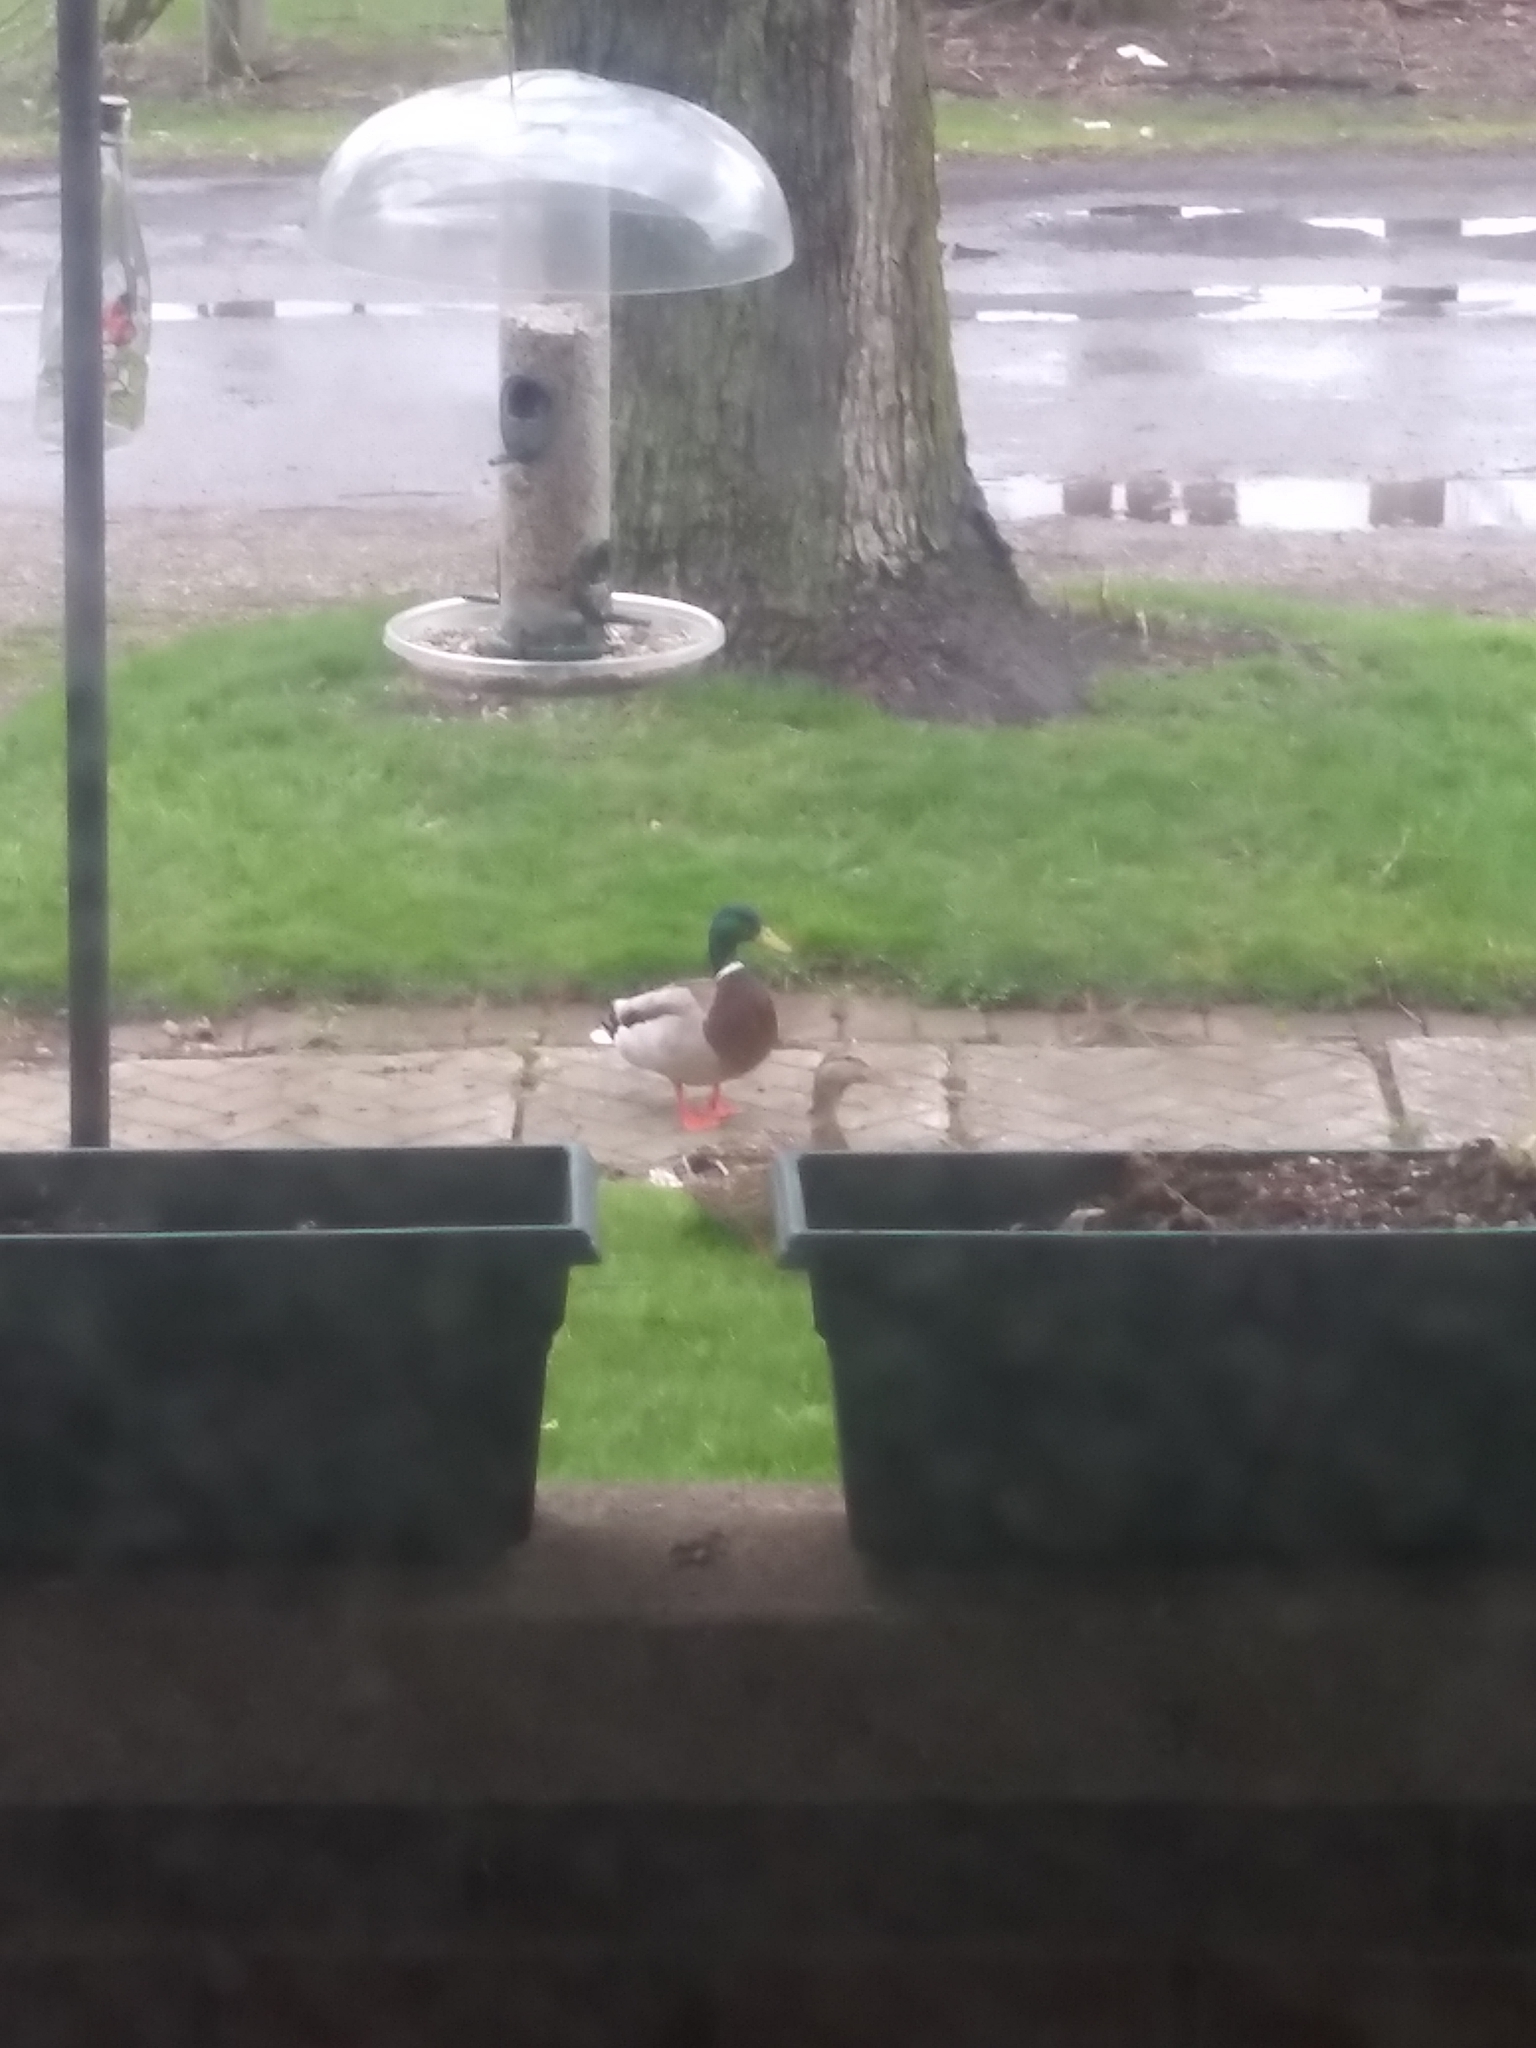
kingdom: Animalia
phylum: Chordata
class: Aves
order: Anseriformes
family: Anatidae
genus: Anas
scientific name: Anas platyrhynchos
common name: Mallard
